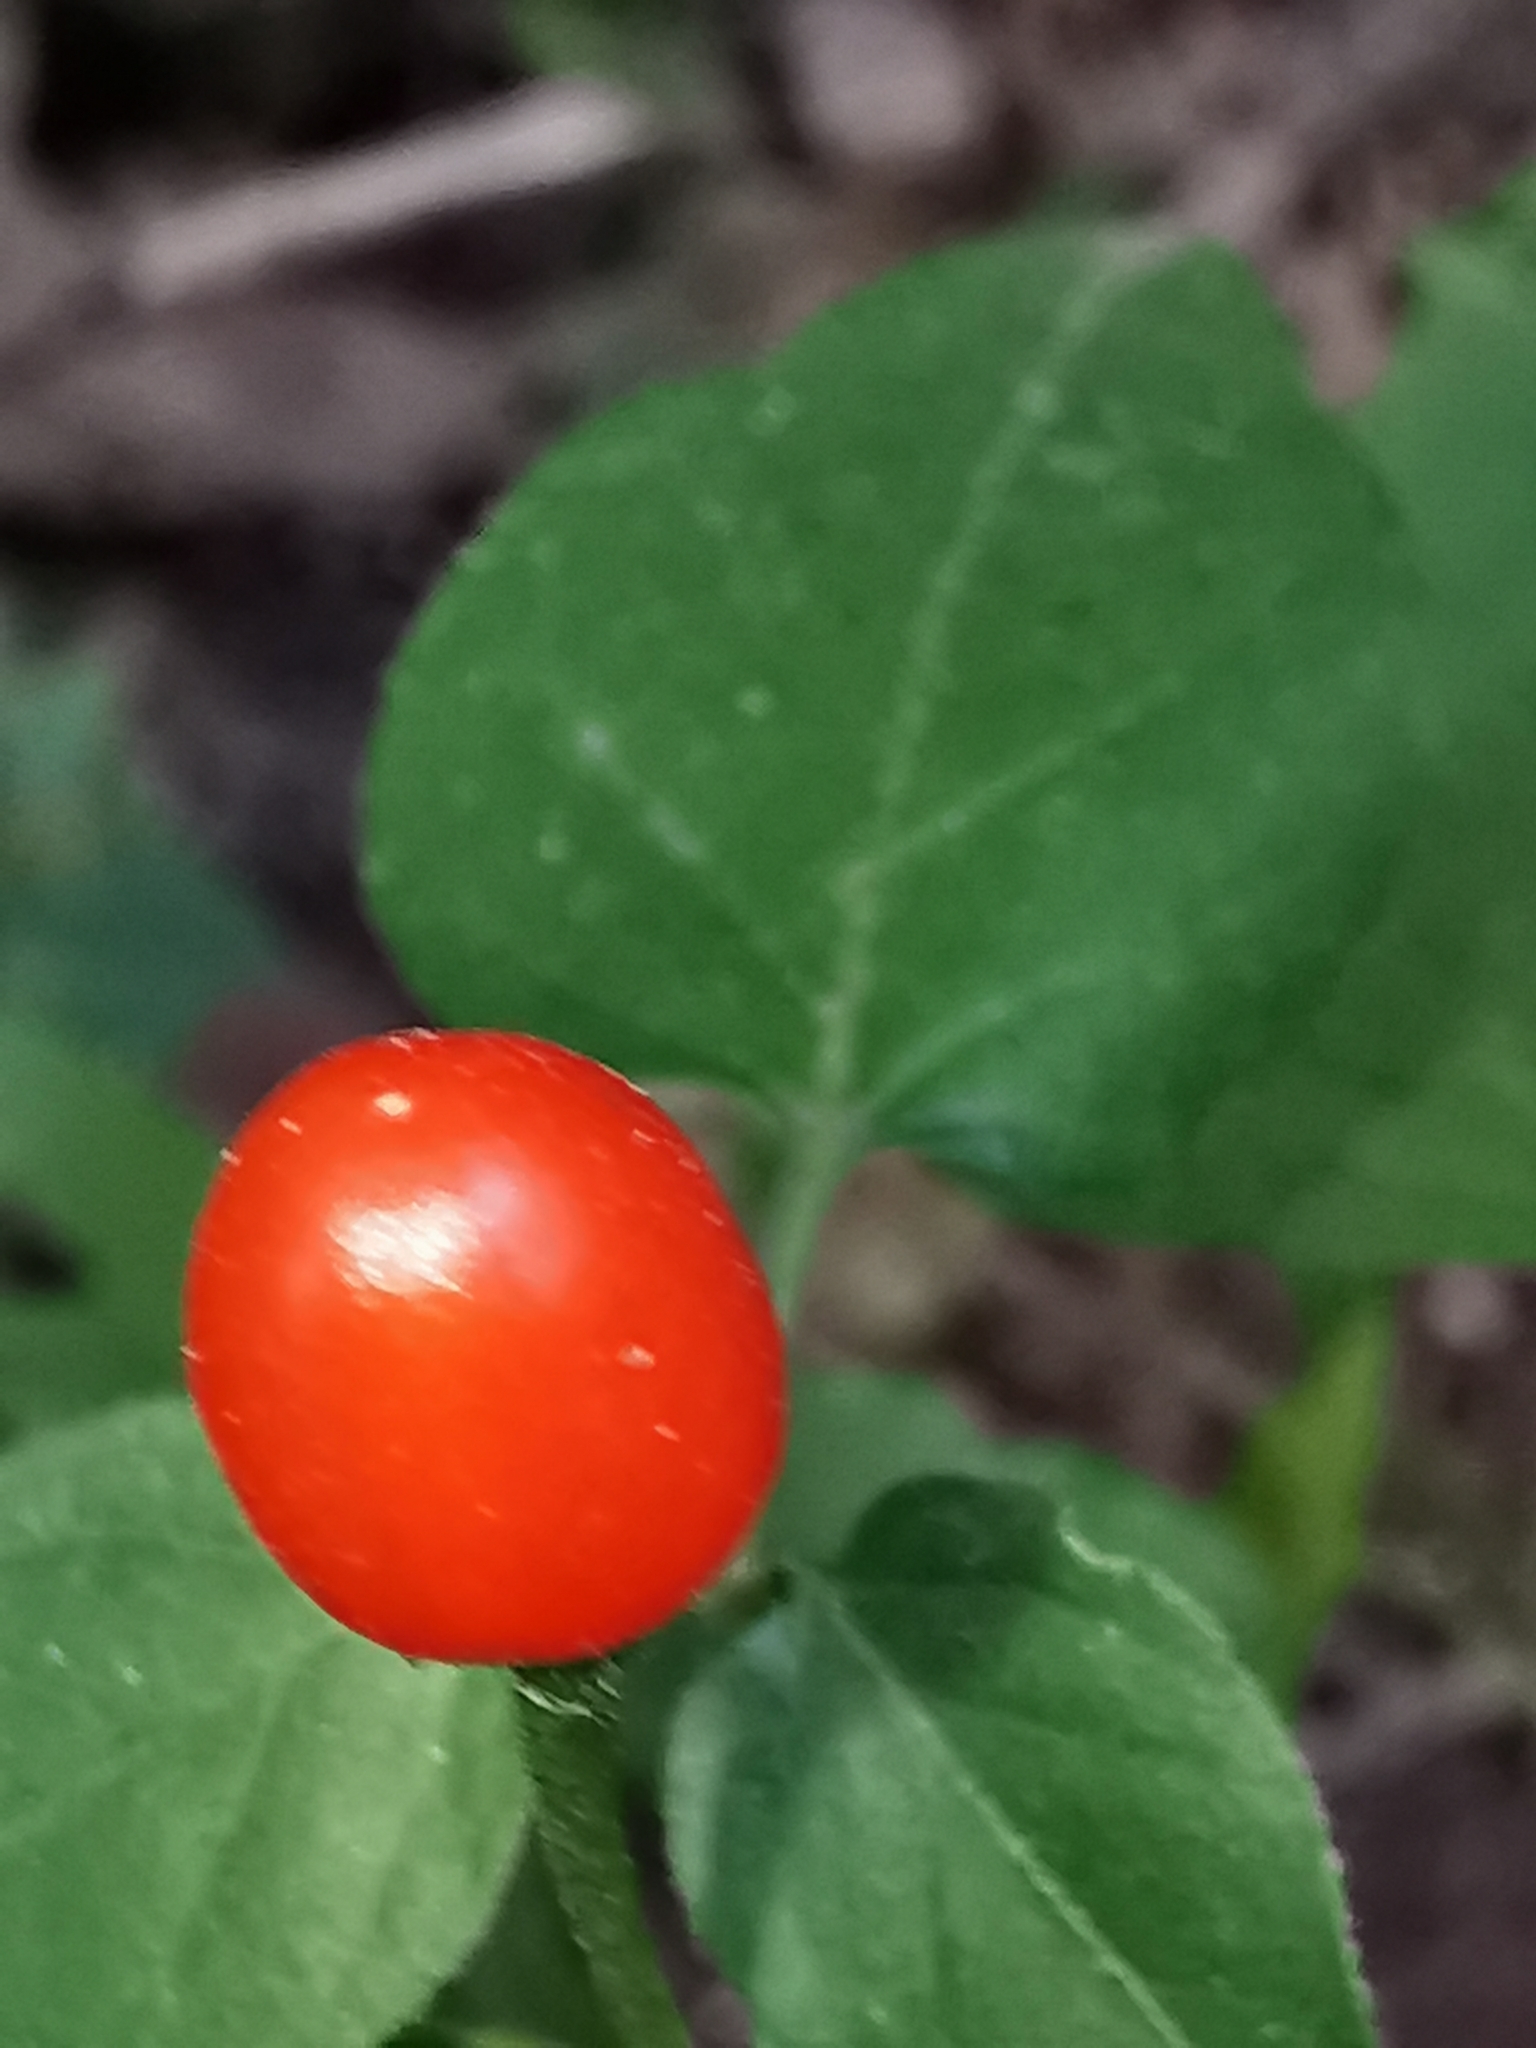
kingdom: Plantae
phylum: Tracheophyta
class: Magnoliopsida
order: Solanales
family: Solanaceae
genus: Capsicum
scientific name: Capsicum annuum
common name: Sweet pepper
